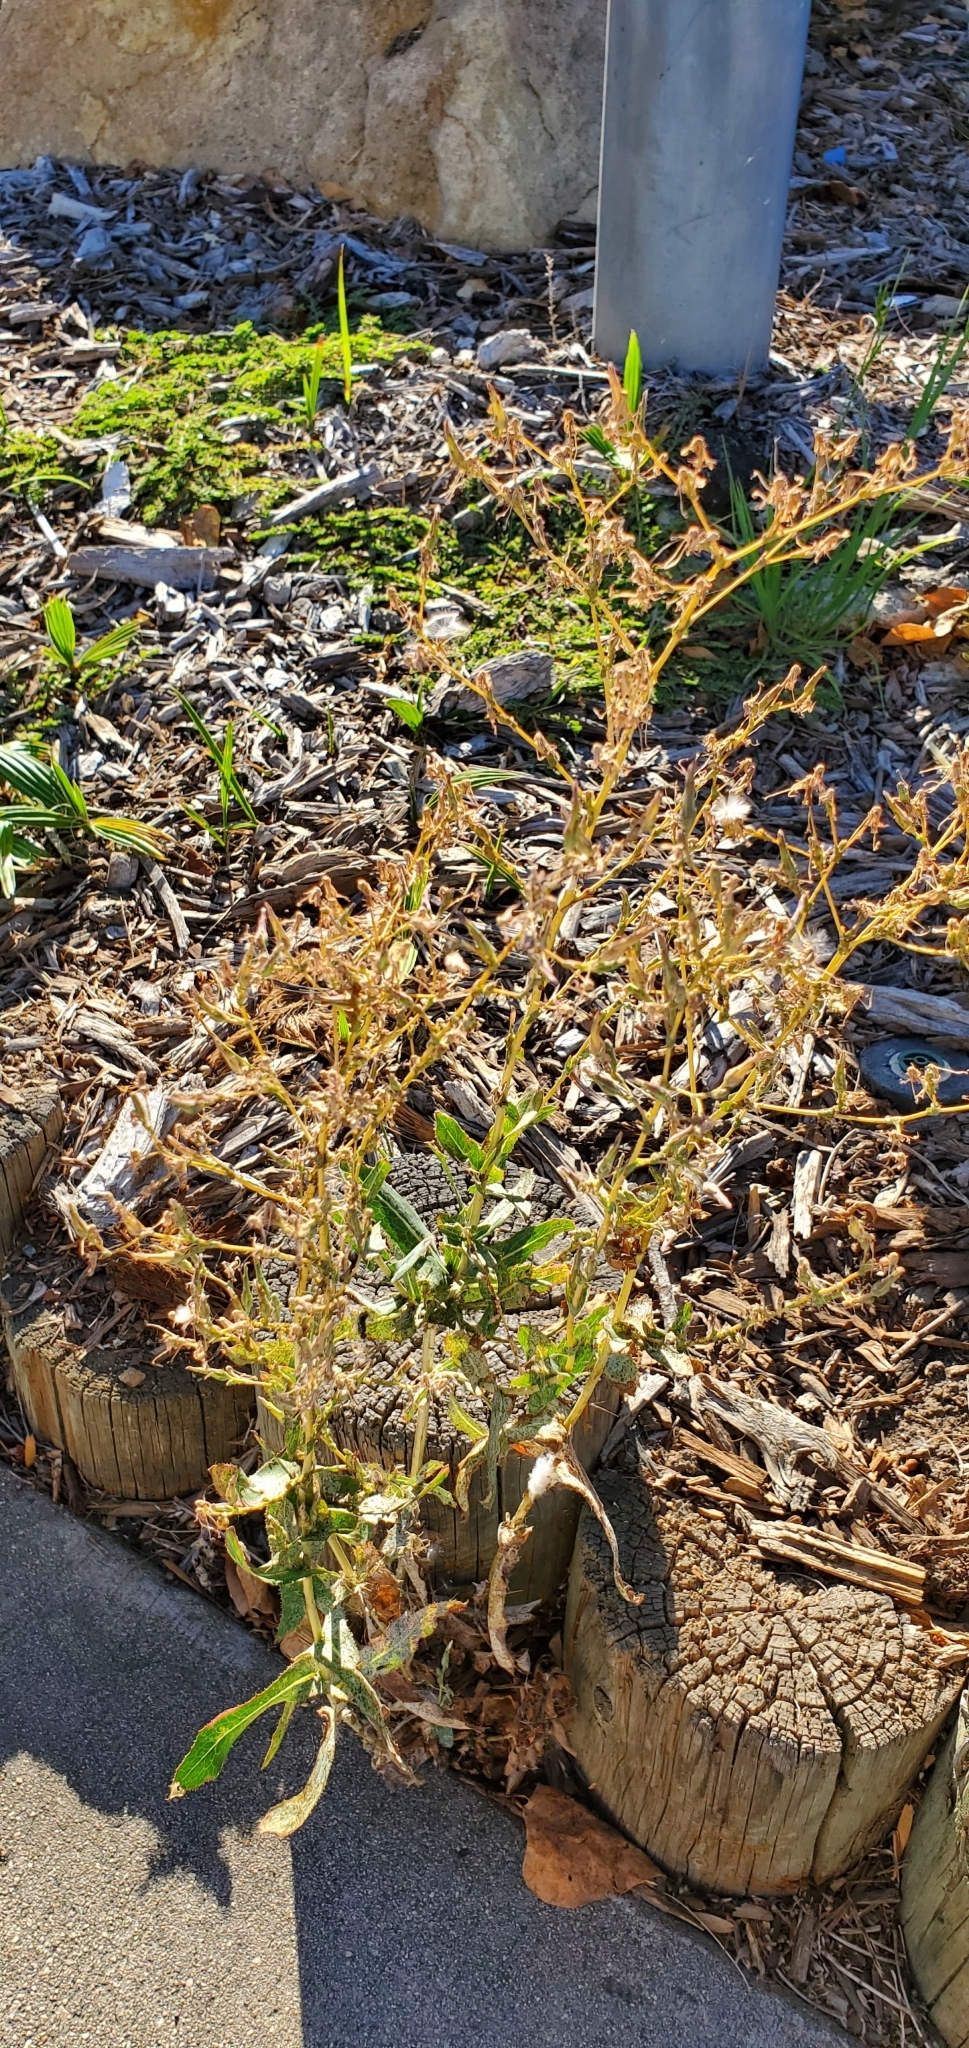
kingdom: Plantae
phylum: Tracheophyta
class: Magnoliopsida
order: Asterales
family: Asteraceae
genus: Lactuca
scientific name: Lactuca serriola
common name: Prickly lettuce
